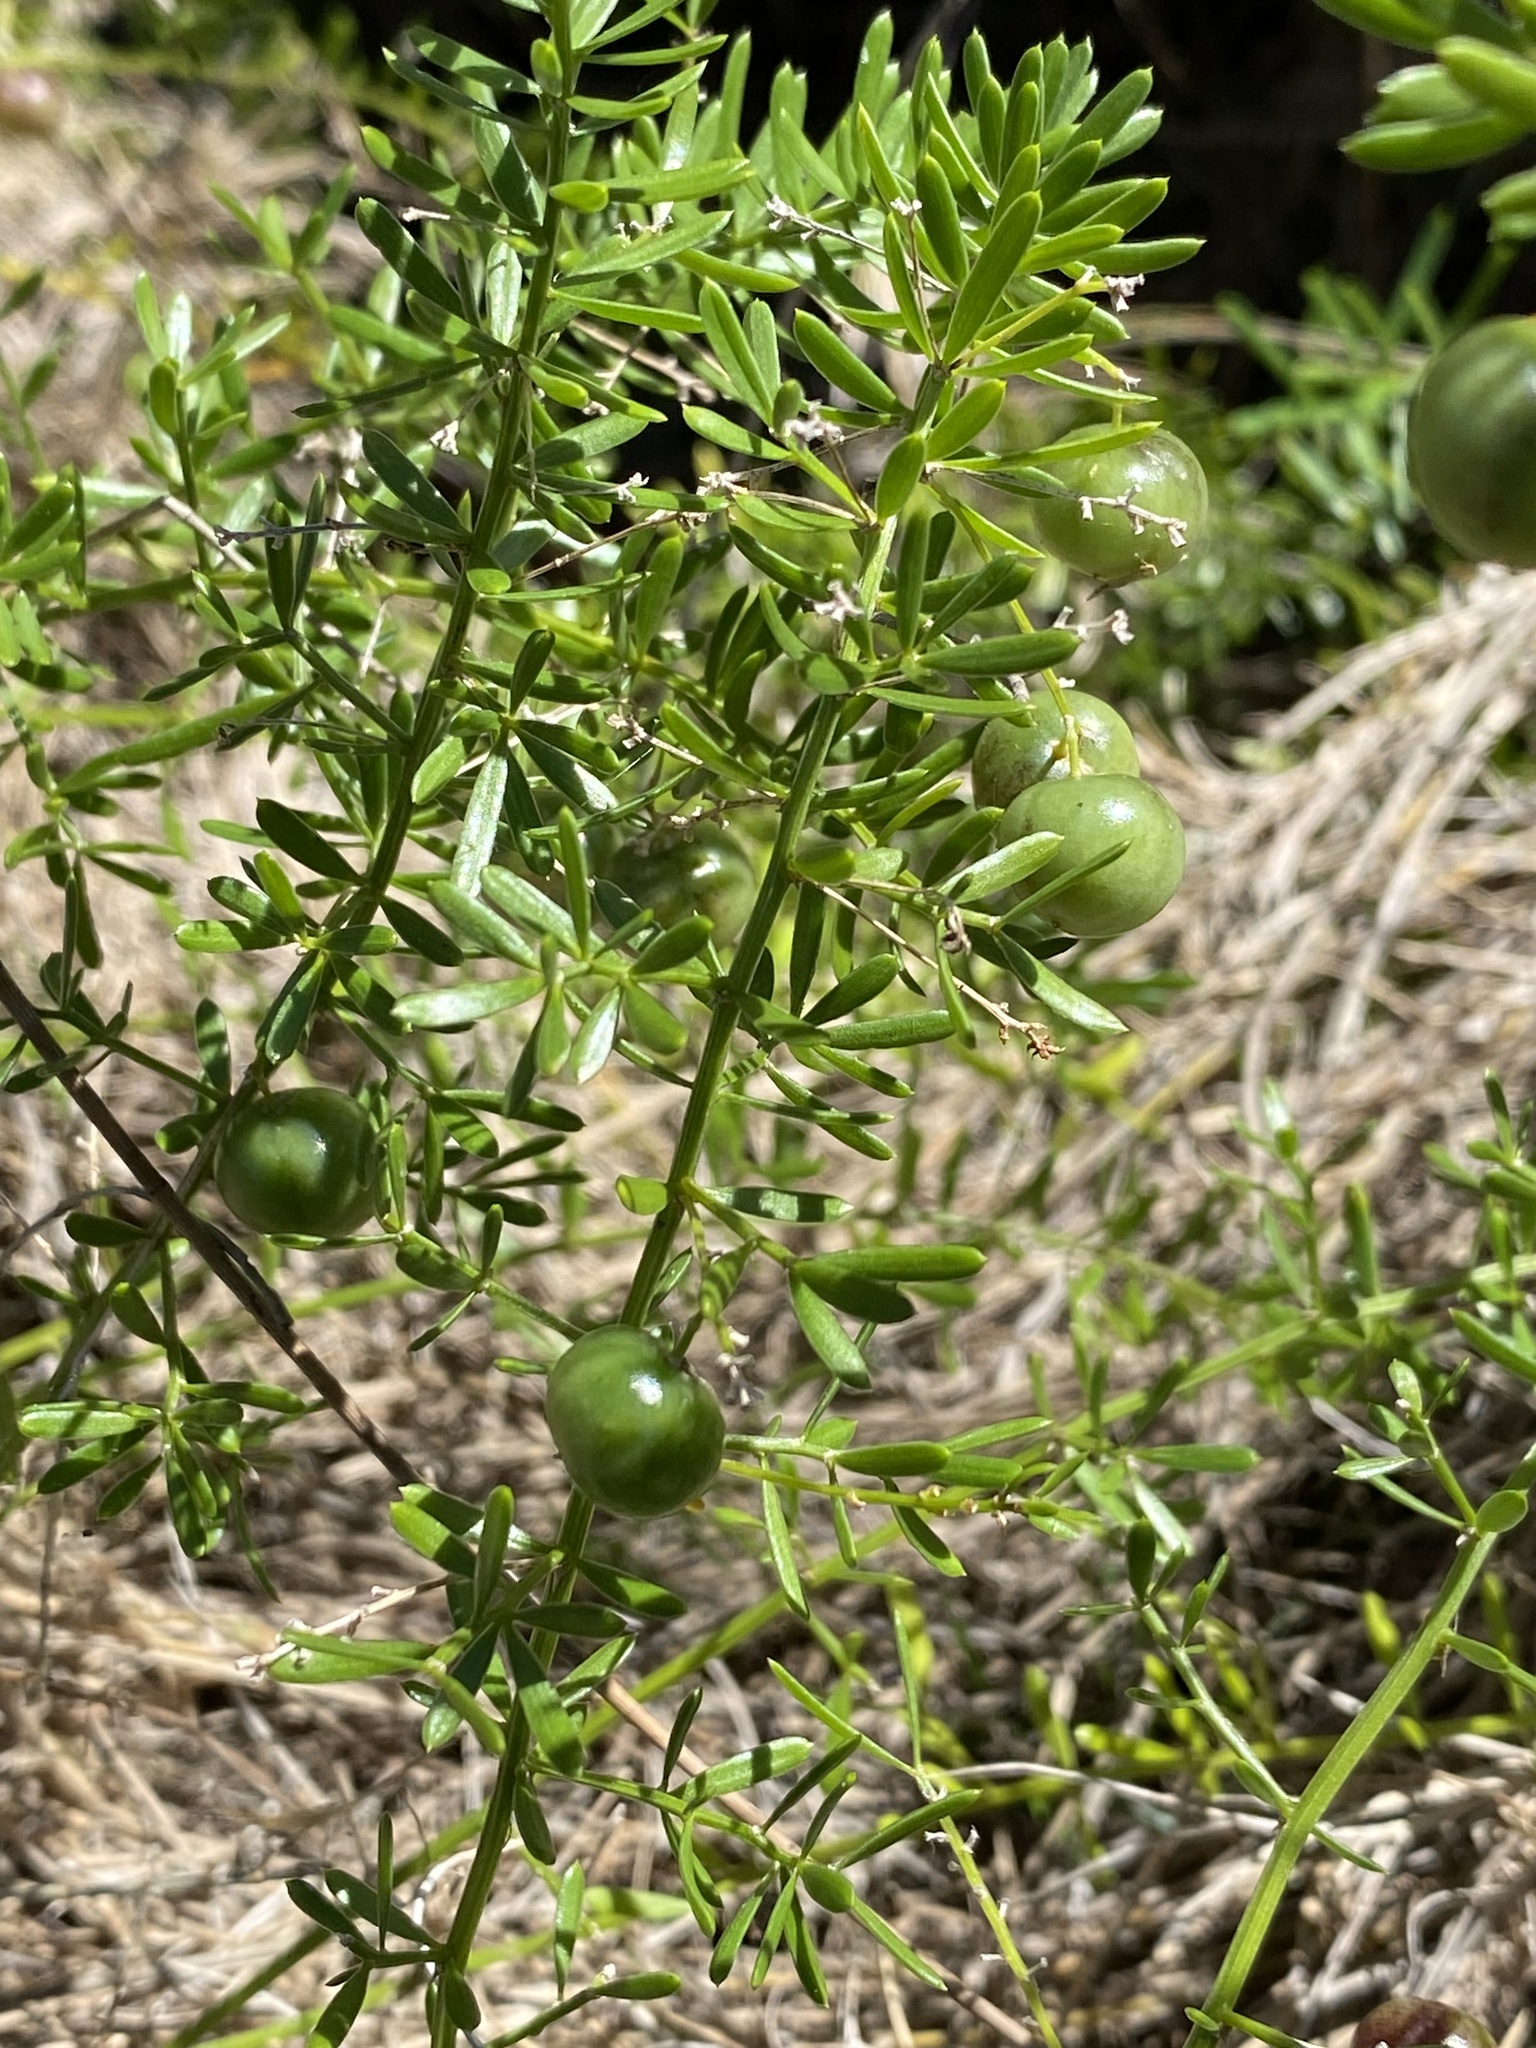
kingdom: Plantae
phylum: Tracheophyta
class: Liliopsida
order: Asparagales
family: Asparagaceae
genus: Asparagus
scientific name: Asparagus aethiopicus
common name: Sprenger's asparagus fern
